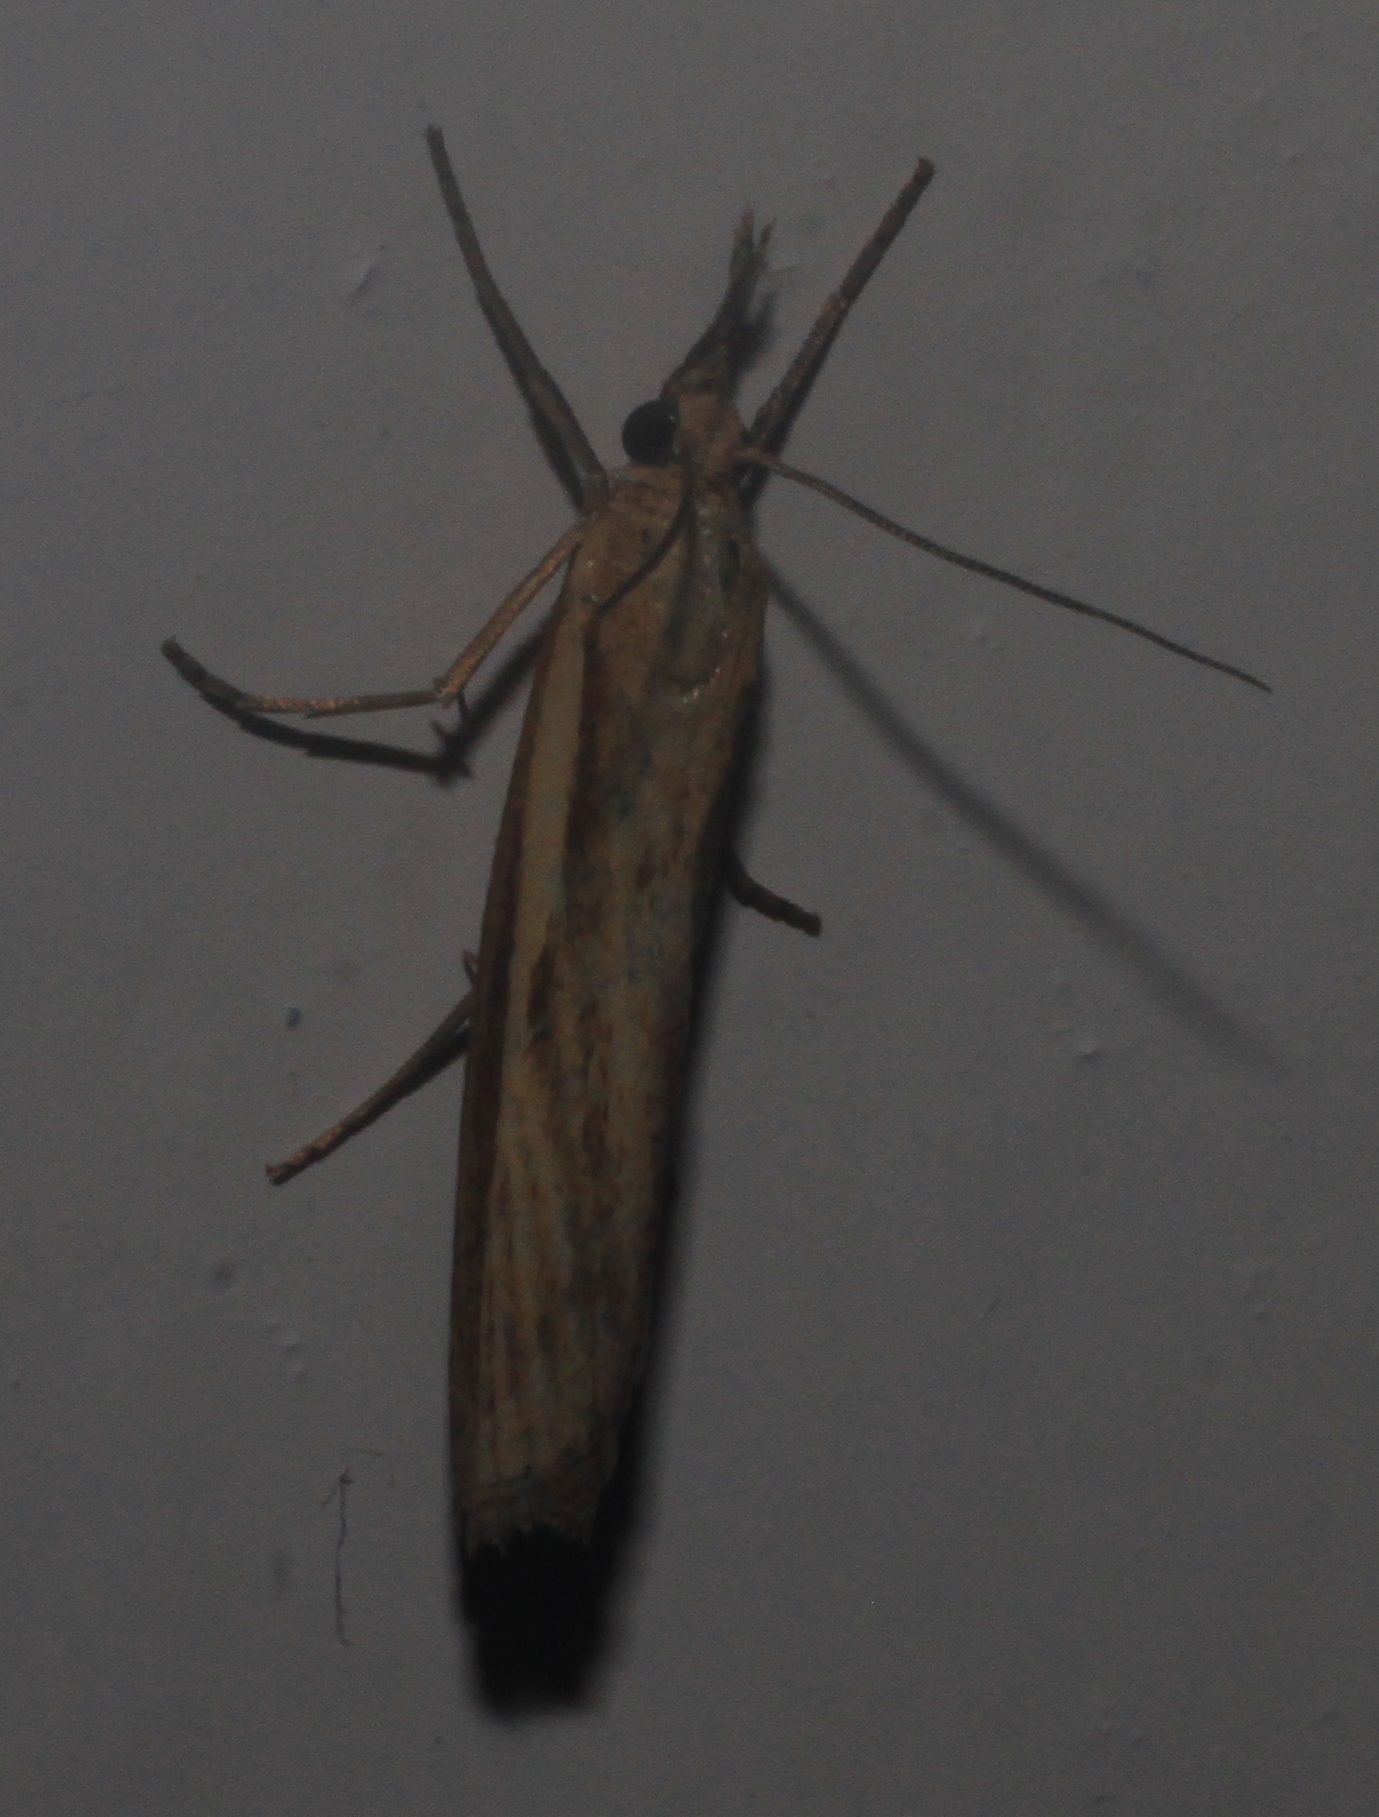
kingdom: Animalia
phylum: Arthropoda
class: Insecta
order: Lepidoptera
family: Crambidae
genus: Agriphila
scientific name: Agriphila tristellus
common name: Common grass-veneer
